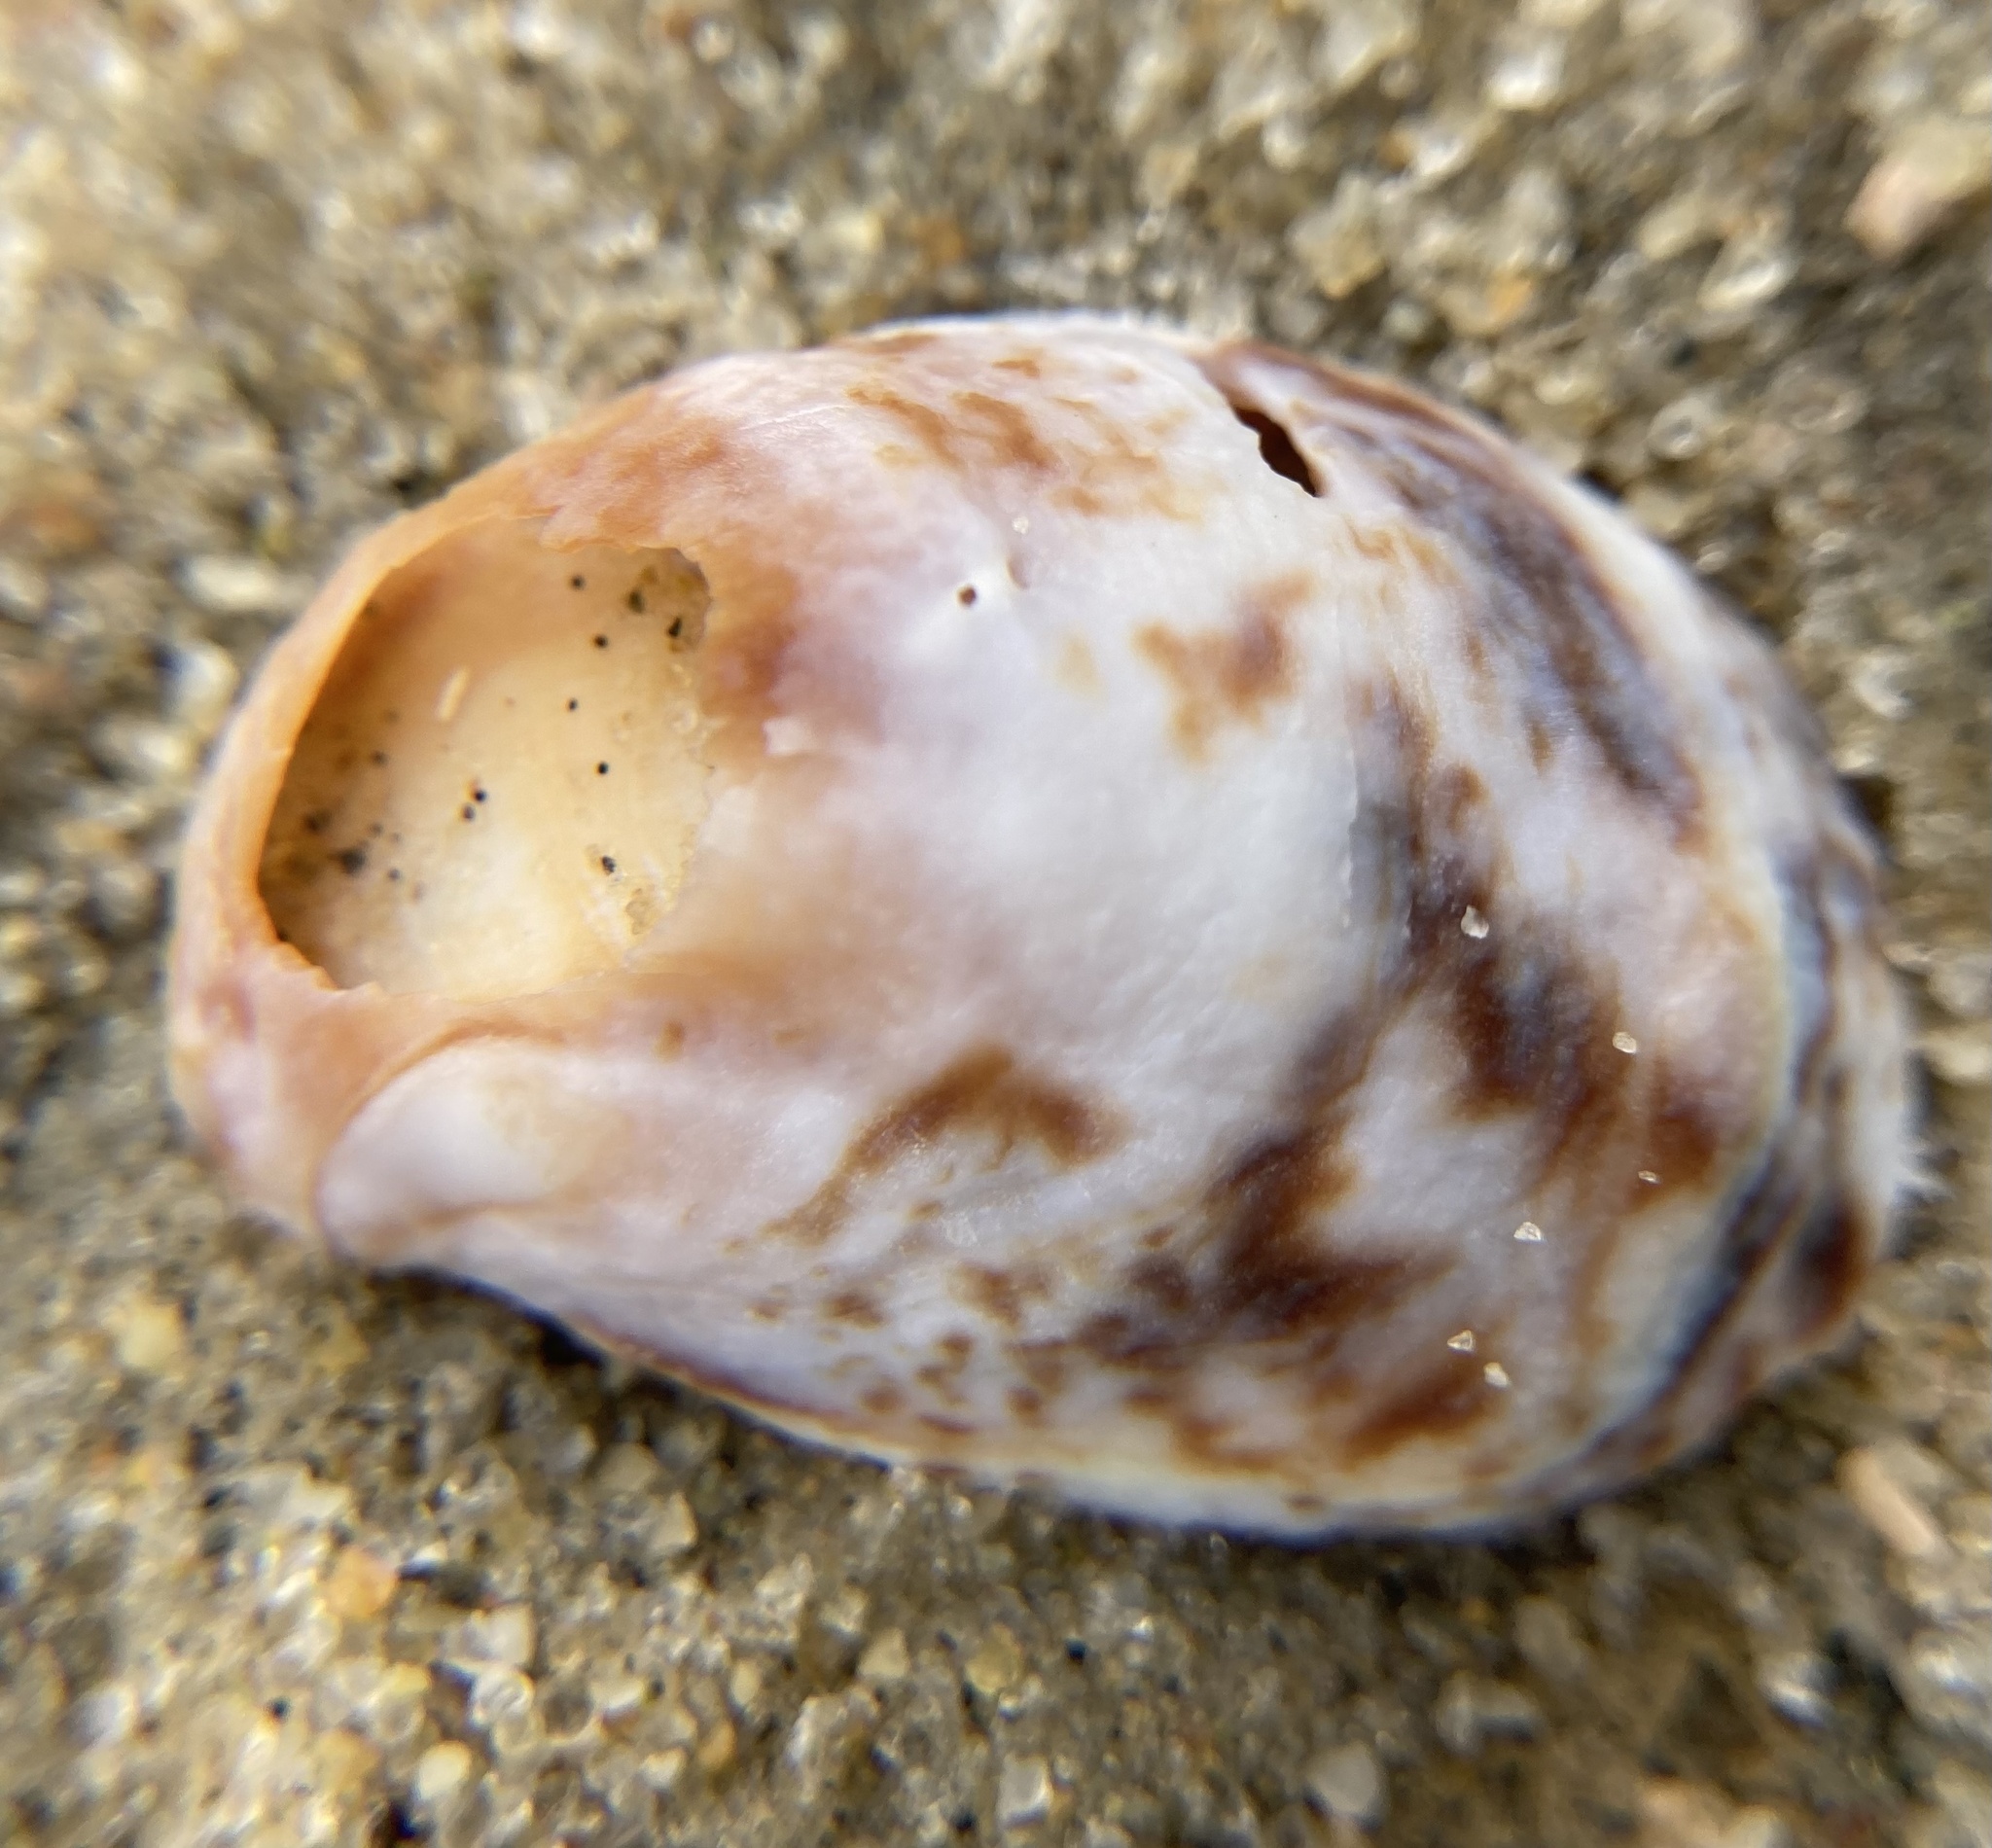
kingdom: Animalia
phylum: Mollusca
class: Gastropoda
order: Littorinimorpha
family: Calyptraeidae
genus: Crepidula
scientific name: Crepidula fornicata
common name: Slipper limpet
